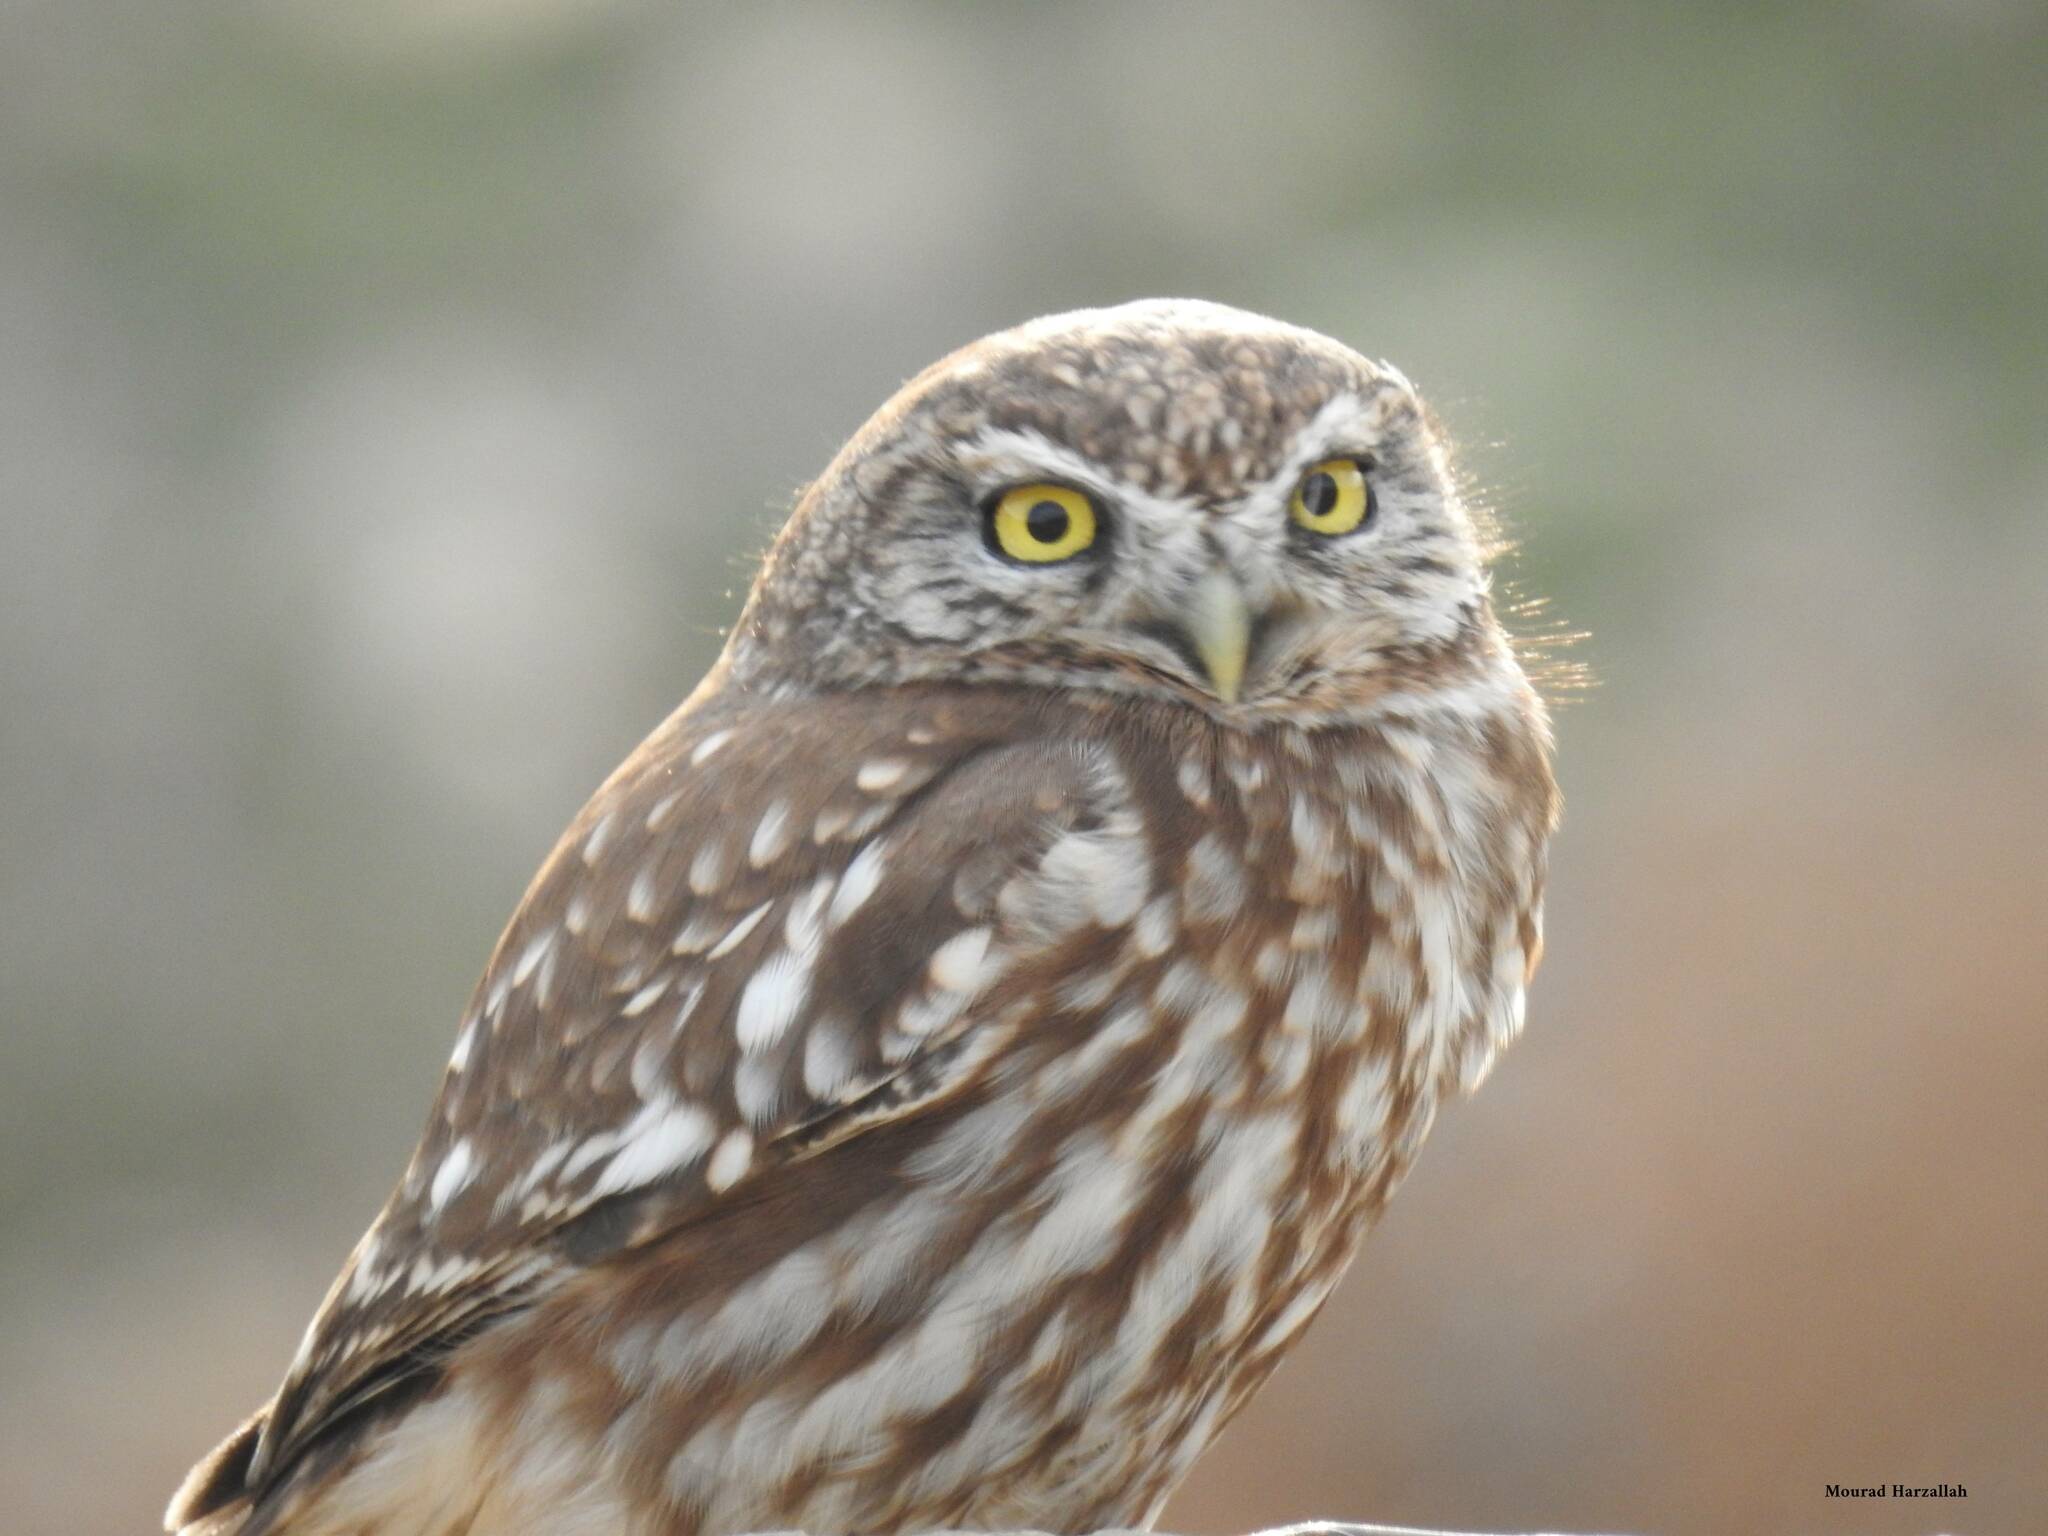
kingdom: Animalia
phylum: Chordata
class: Aves
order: Strigiformes
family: Strigidae
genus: Athene
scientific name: Athene noctua
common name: Little owl
